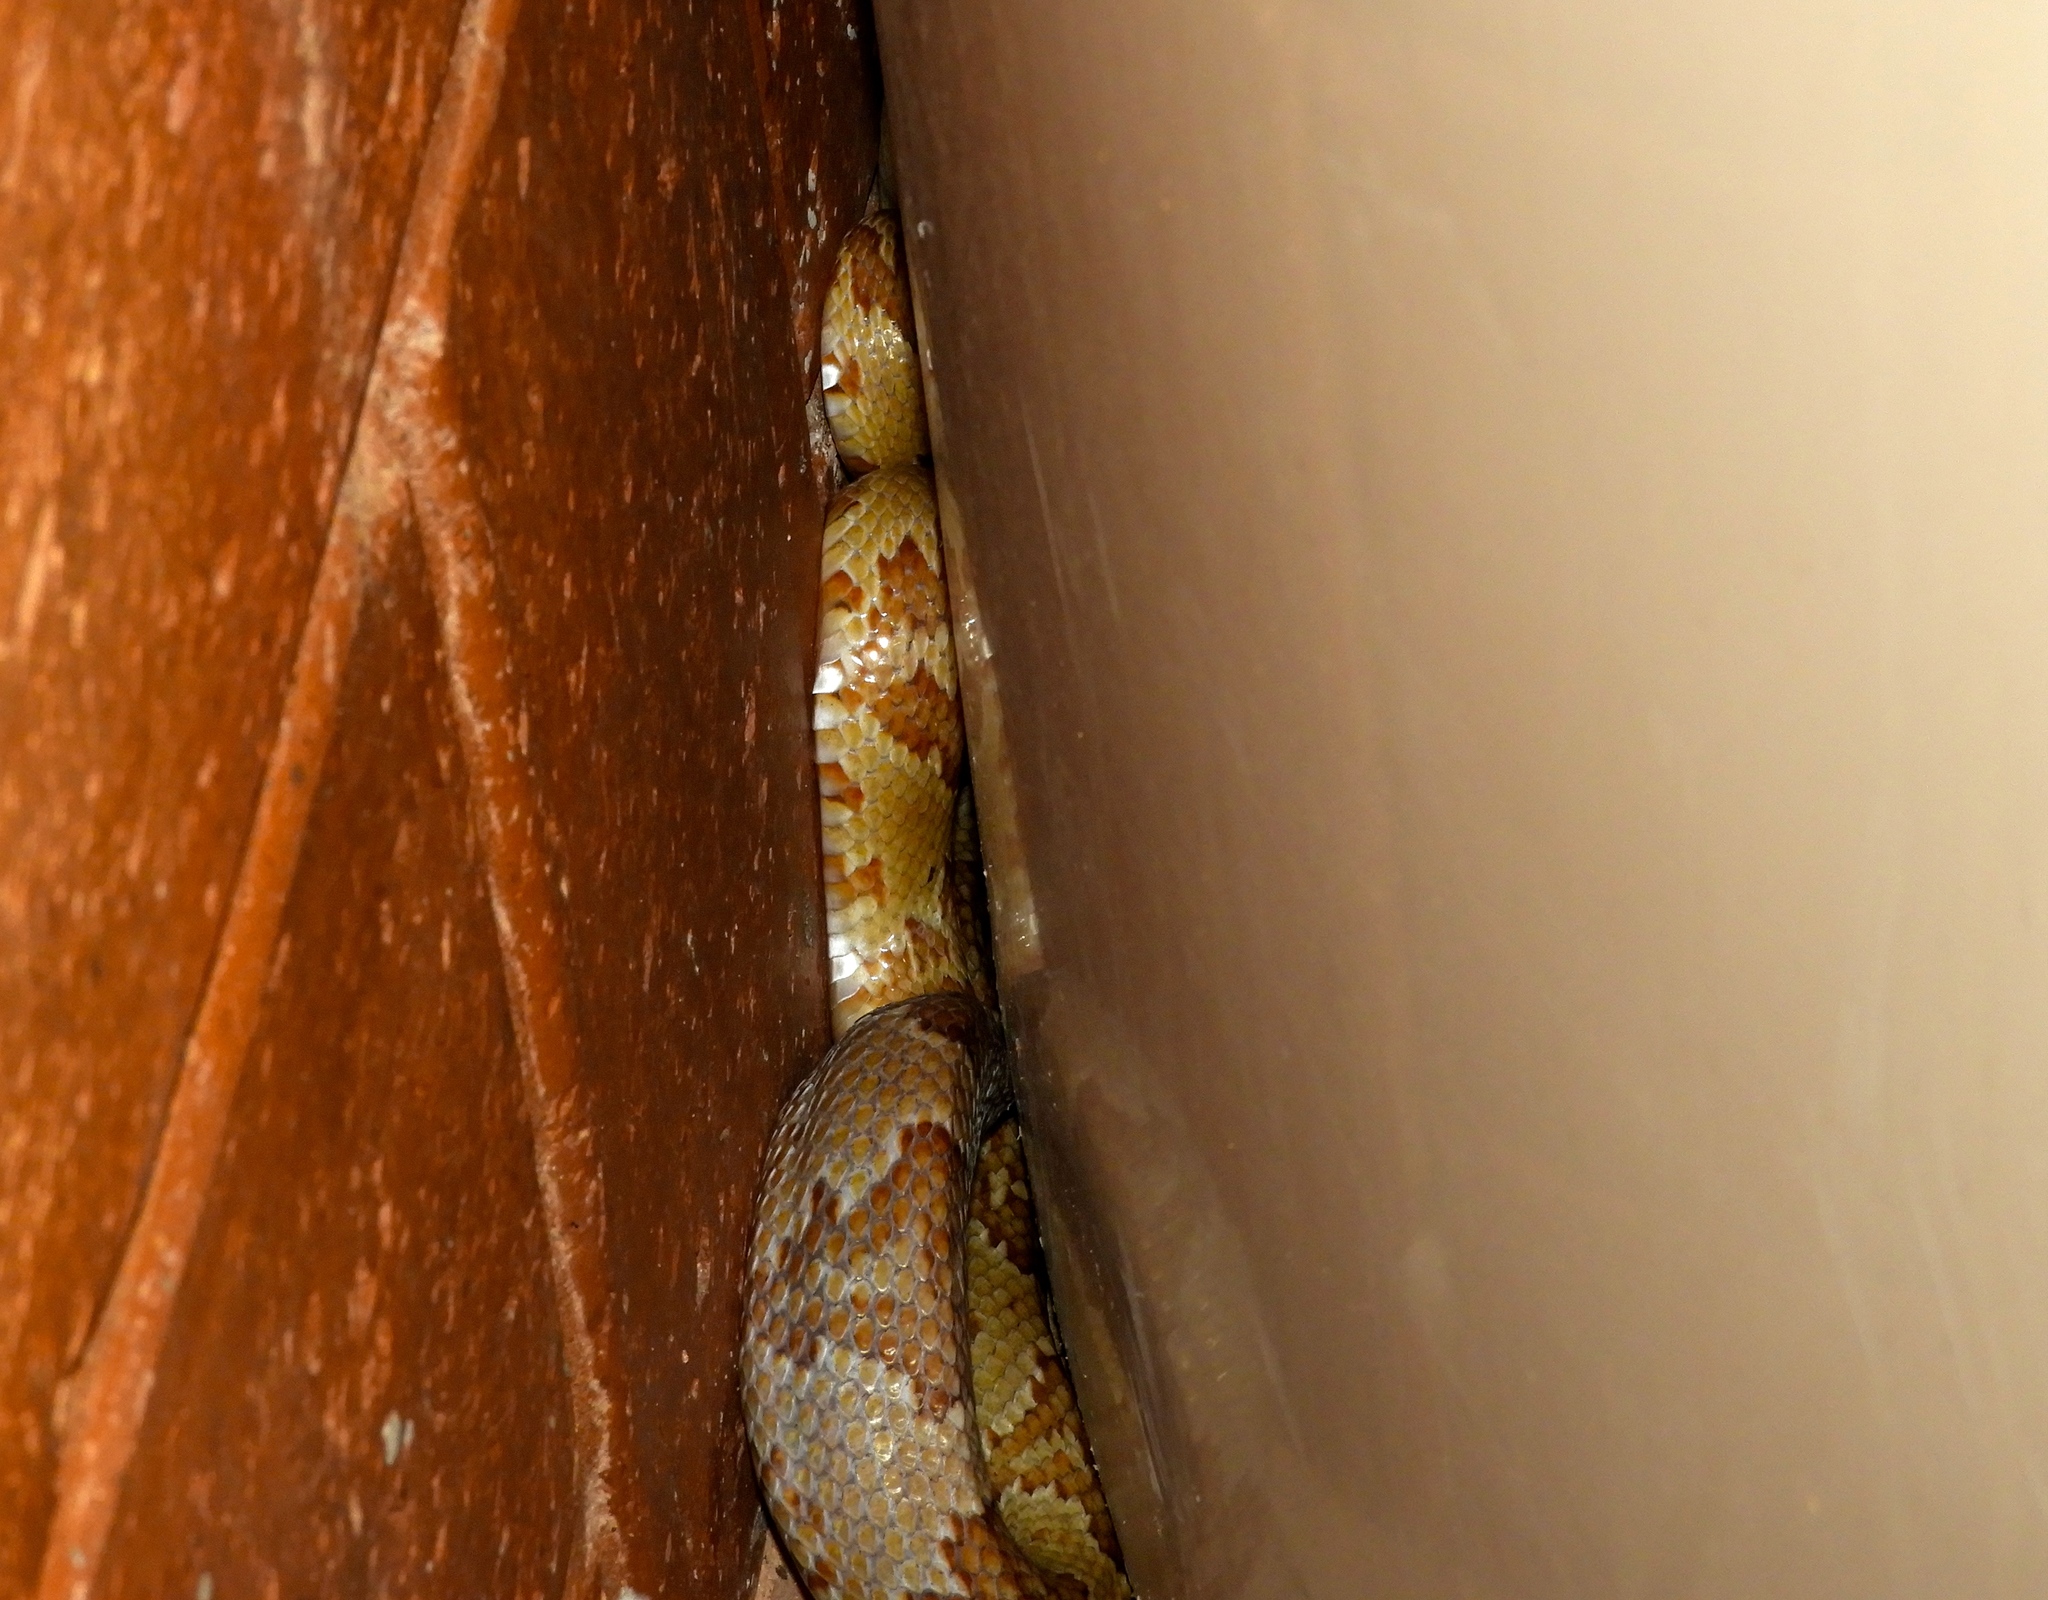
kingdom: Animalia
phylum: Chordata
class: Squamata
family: Colubridae
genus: Trimorphodon
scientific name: Trimorphodon paucimaculatus
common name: Sinaloan lyresnake
